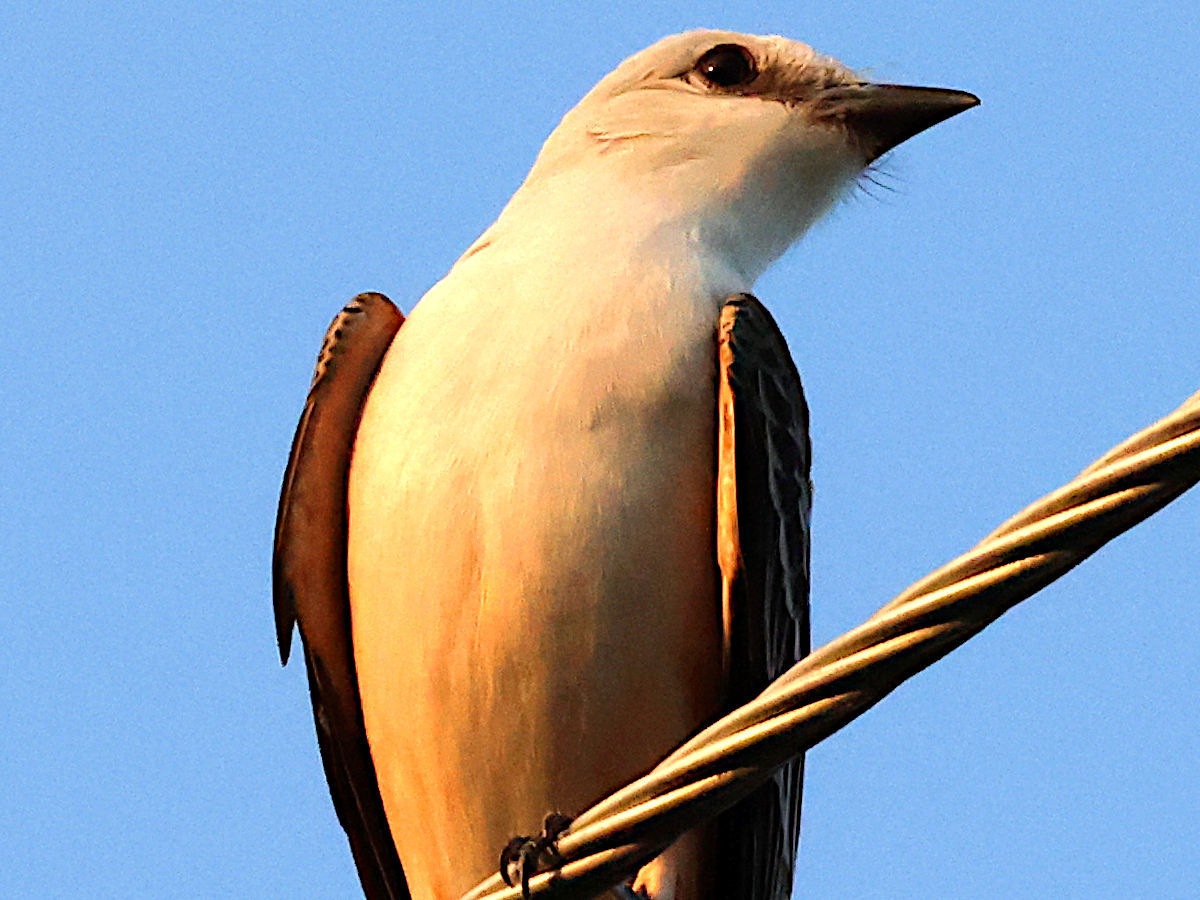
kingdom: Animalia
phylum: Chordata
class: Aves
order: Passeriformes
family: Tyrannidae
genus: Tyrannus
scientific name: Tyrannus forficatus
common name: Scissor-tailed flycatcher
